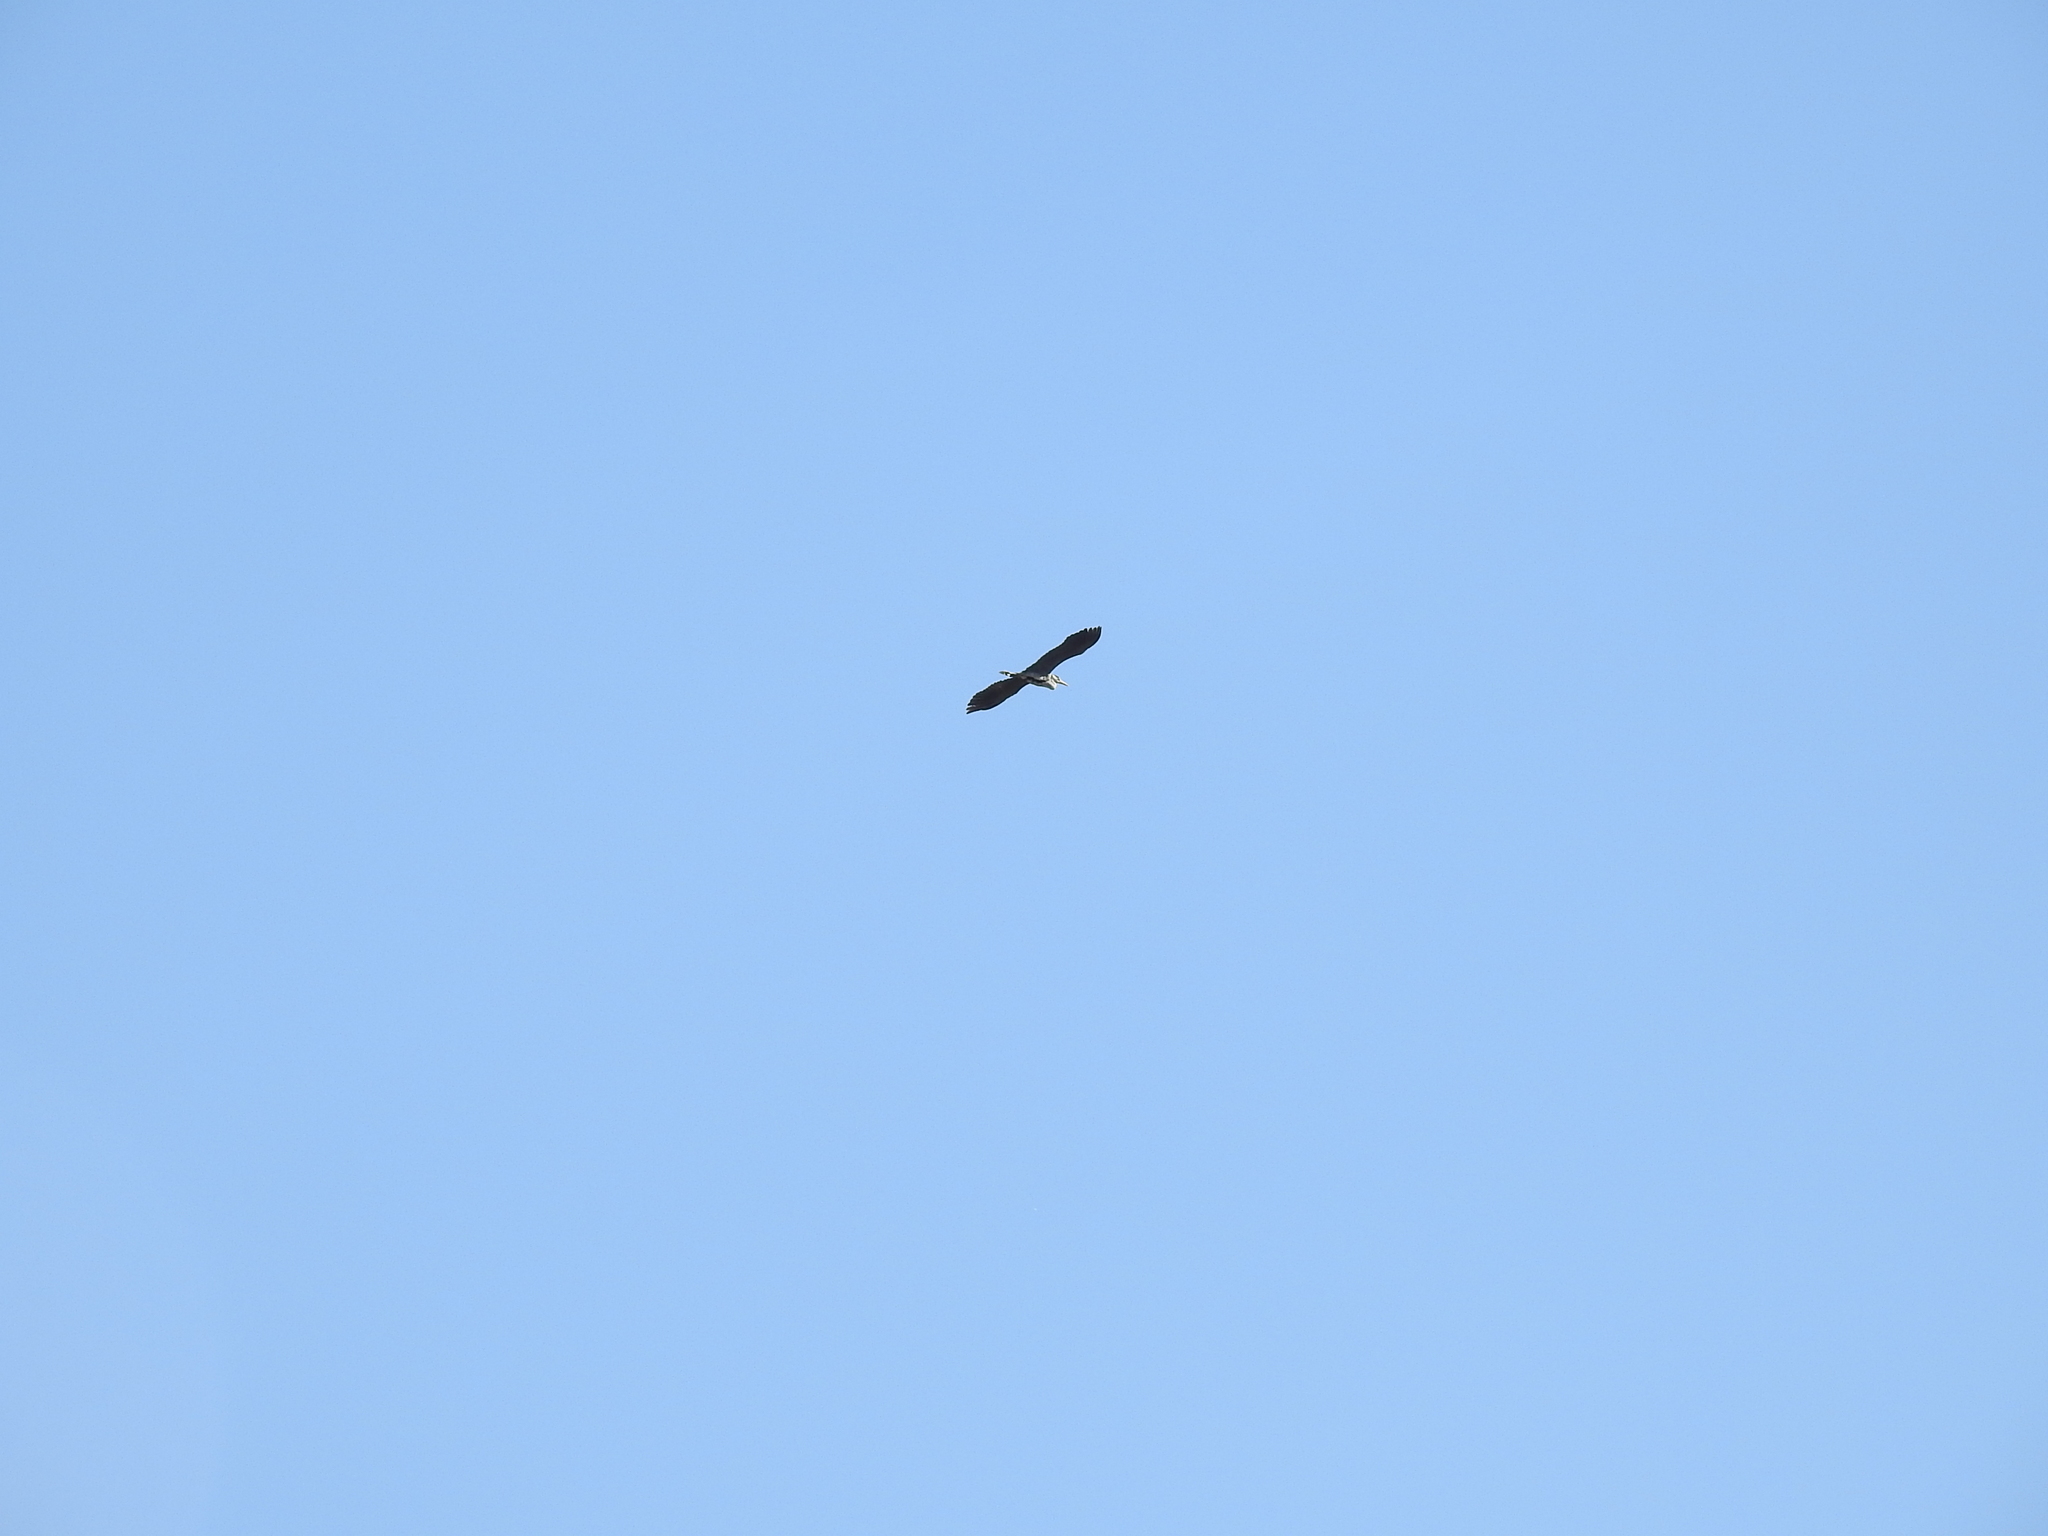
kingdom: Animalia
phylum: Chordata
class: Aves
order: Pelecaniformes
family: Ardeidae
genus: Ardea
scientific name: Ardea cinerea
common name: Grey heron
